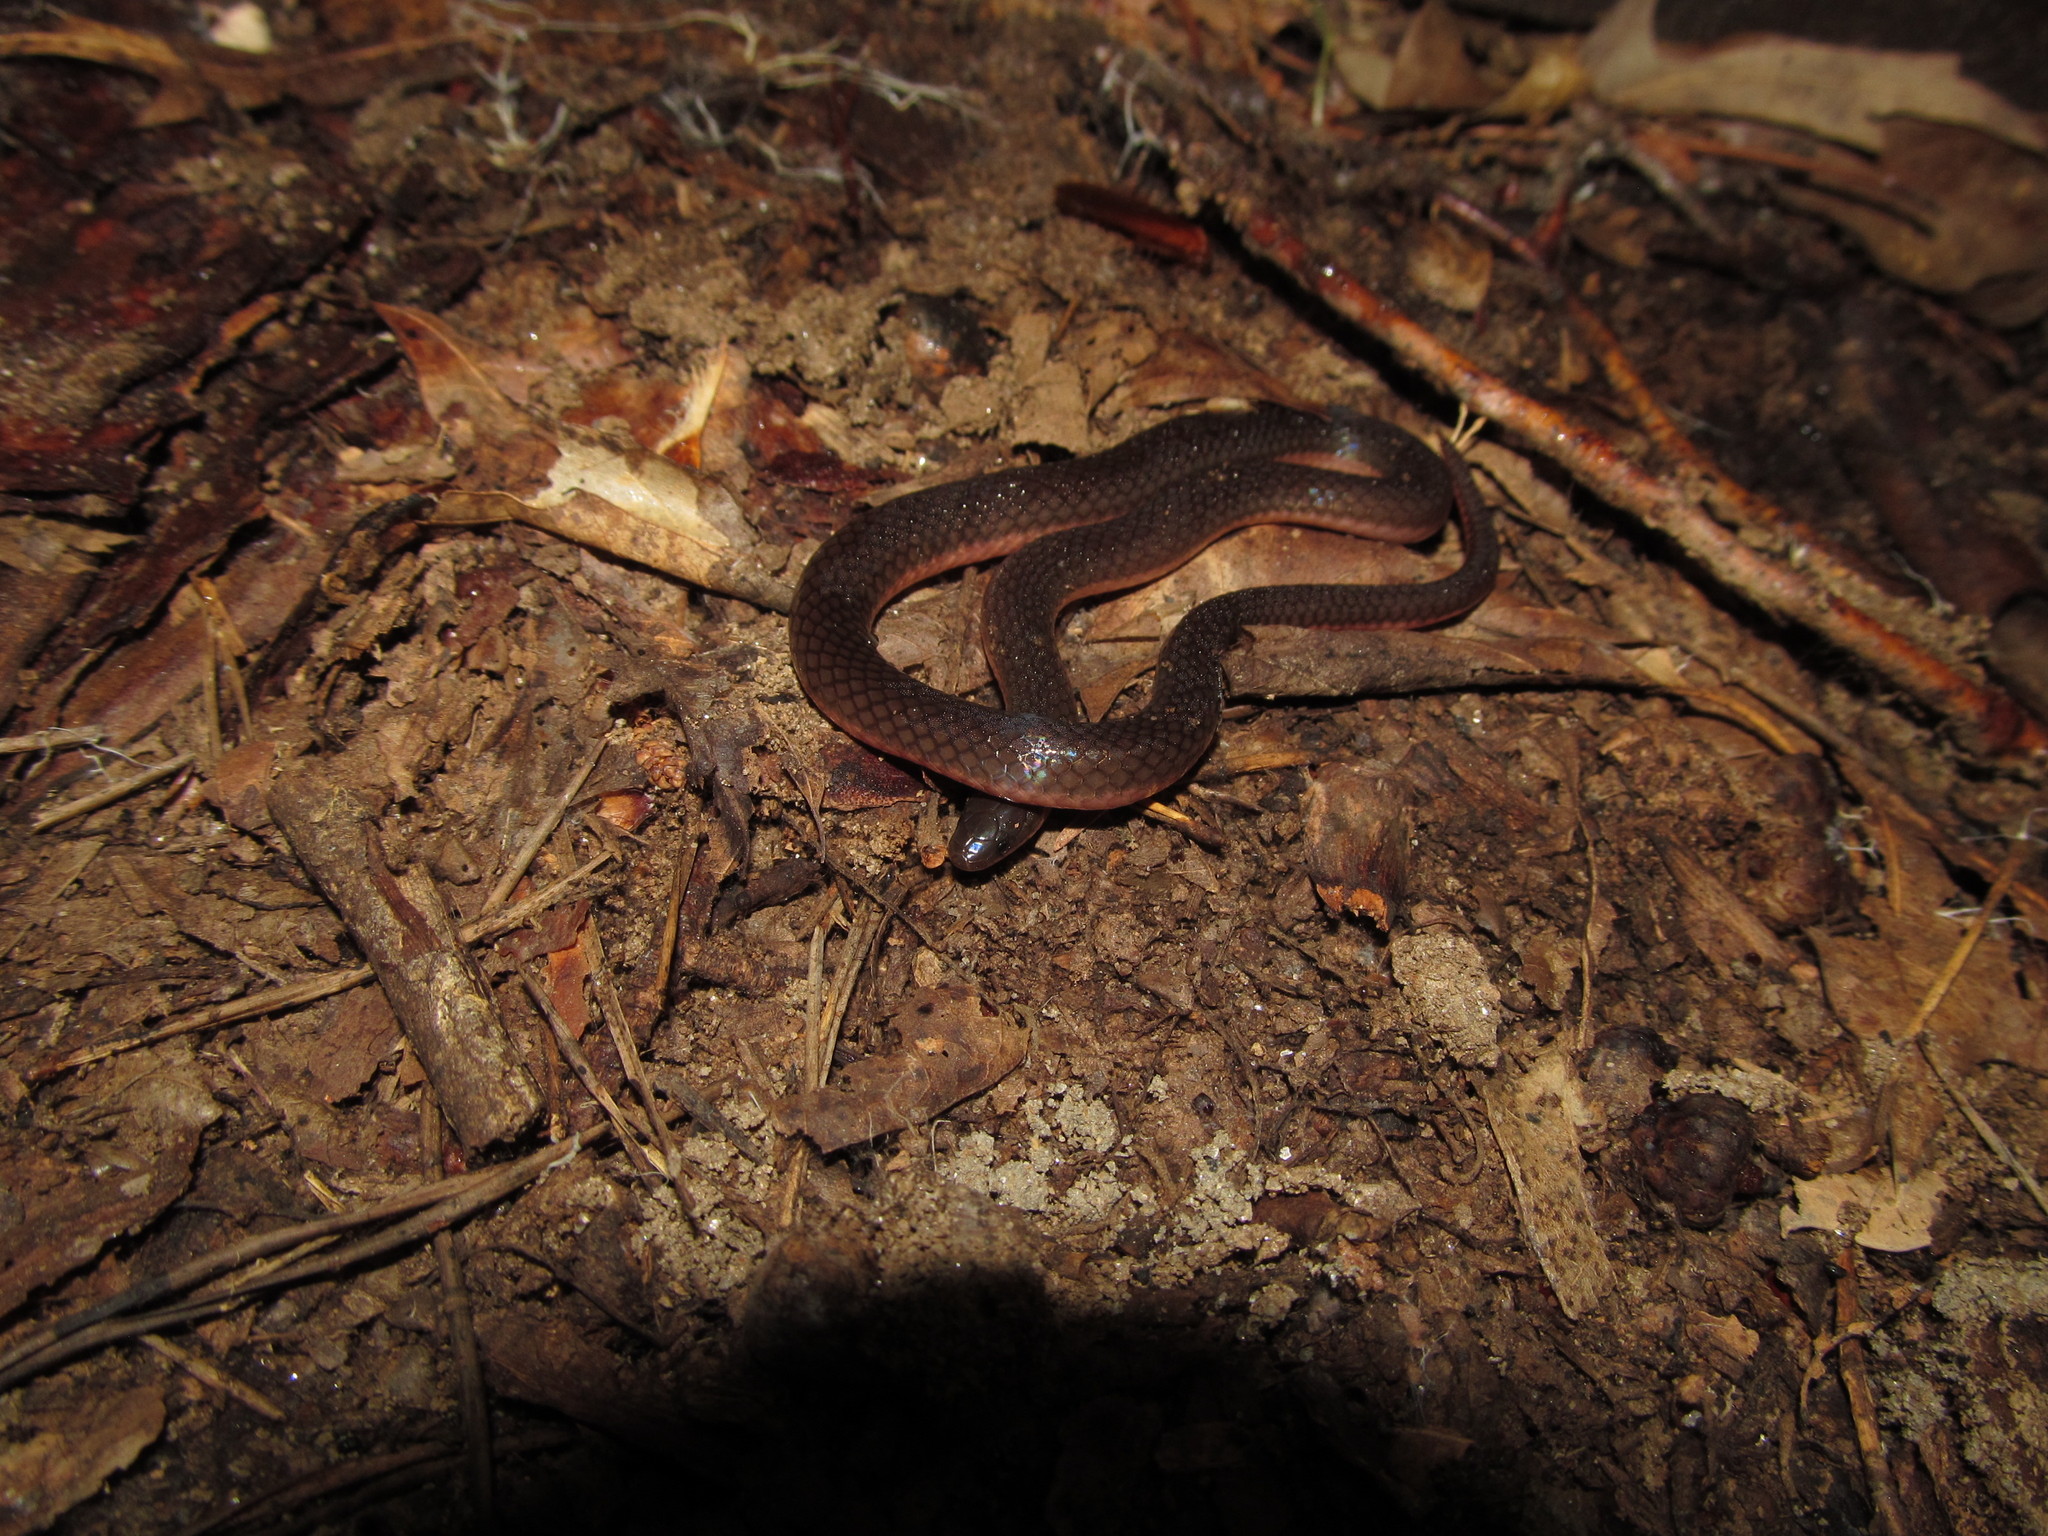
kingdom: Animalia
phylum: Chordata
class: Squamata
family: Colubridae
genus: Carphophis
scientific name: Carphophis amoenus
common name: Eastern worm snake
